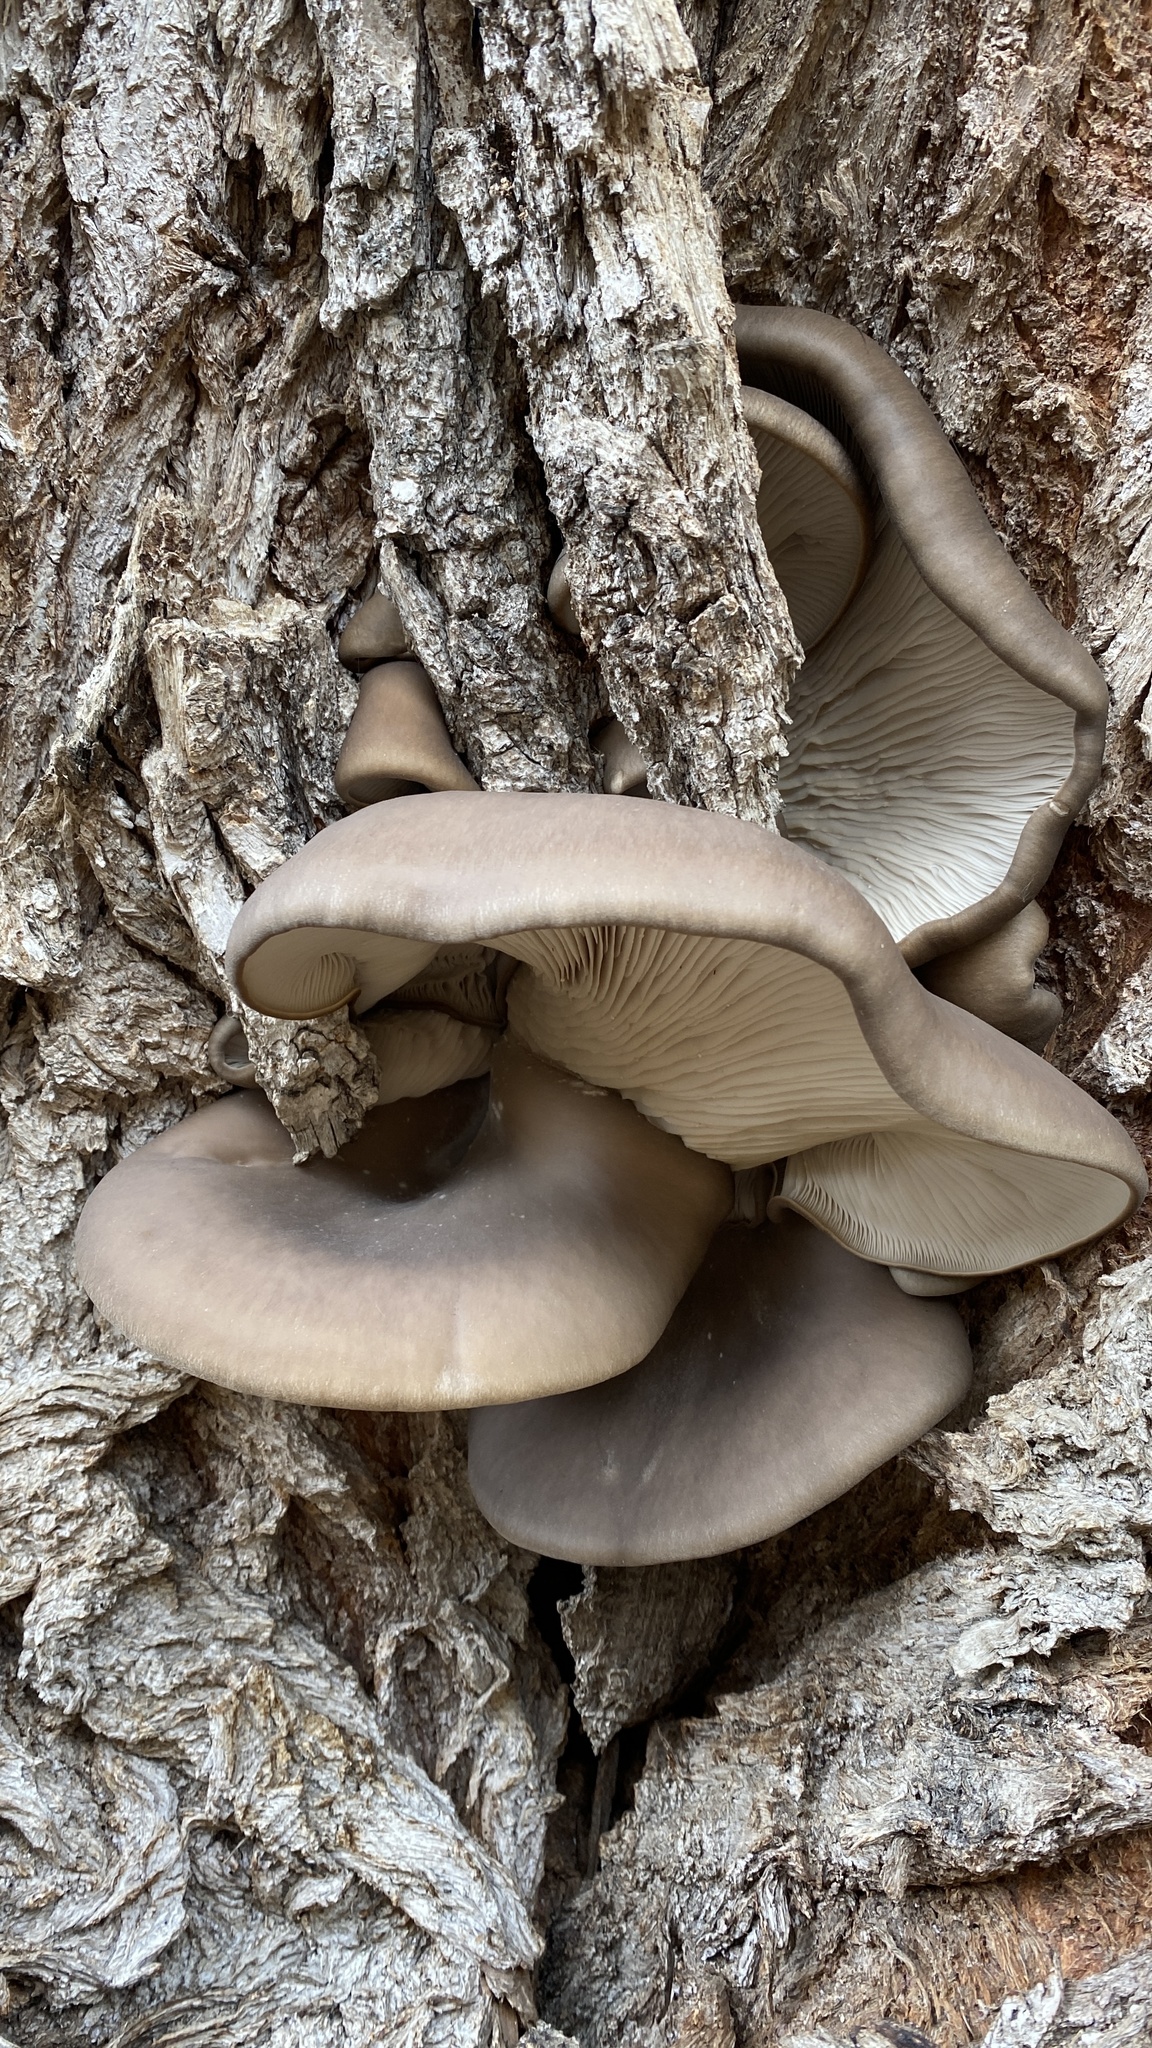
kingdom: Fungi
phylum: Basidiomycota
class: Agaricomycetes
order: Agaricales
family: Pleurotaceae
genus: Pleurotus
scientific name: Pleurotus ostreatus
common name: Oyster mushroom
